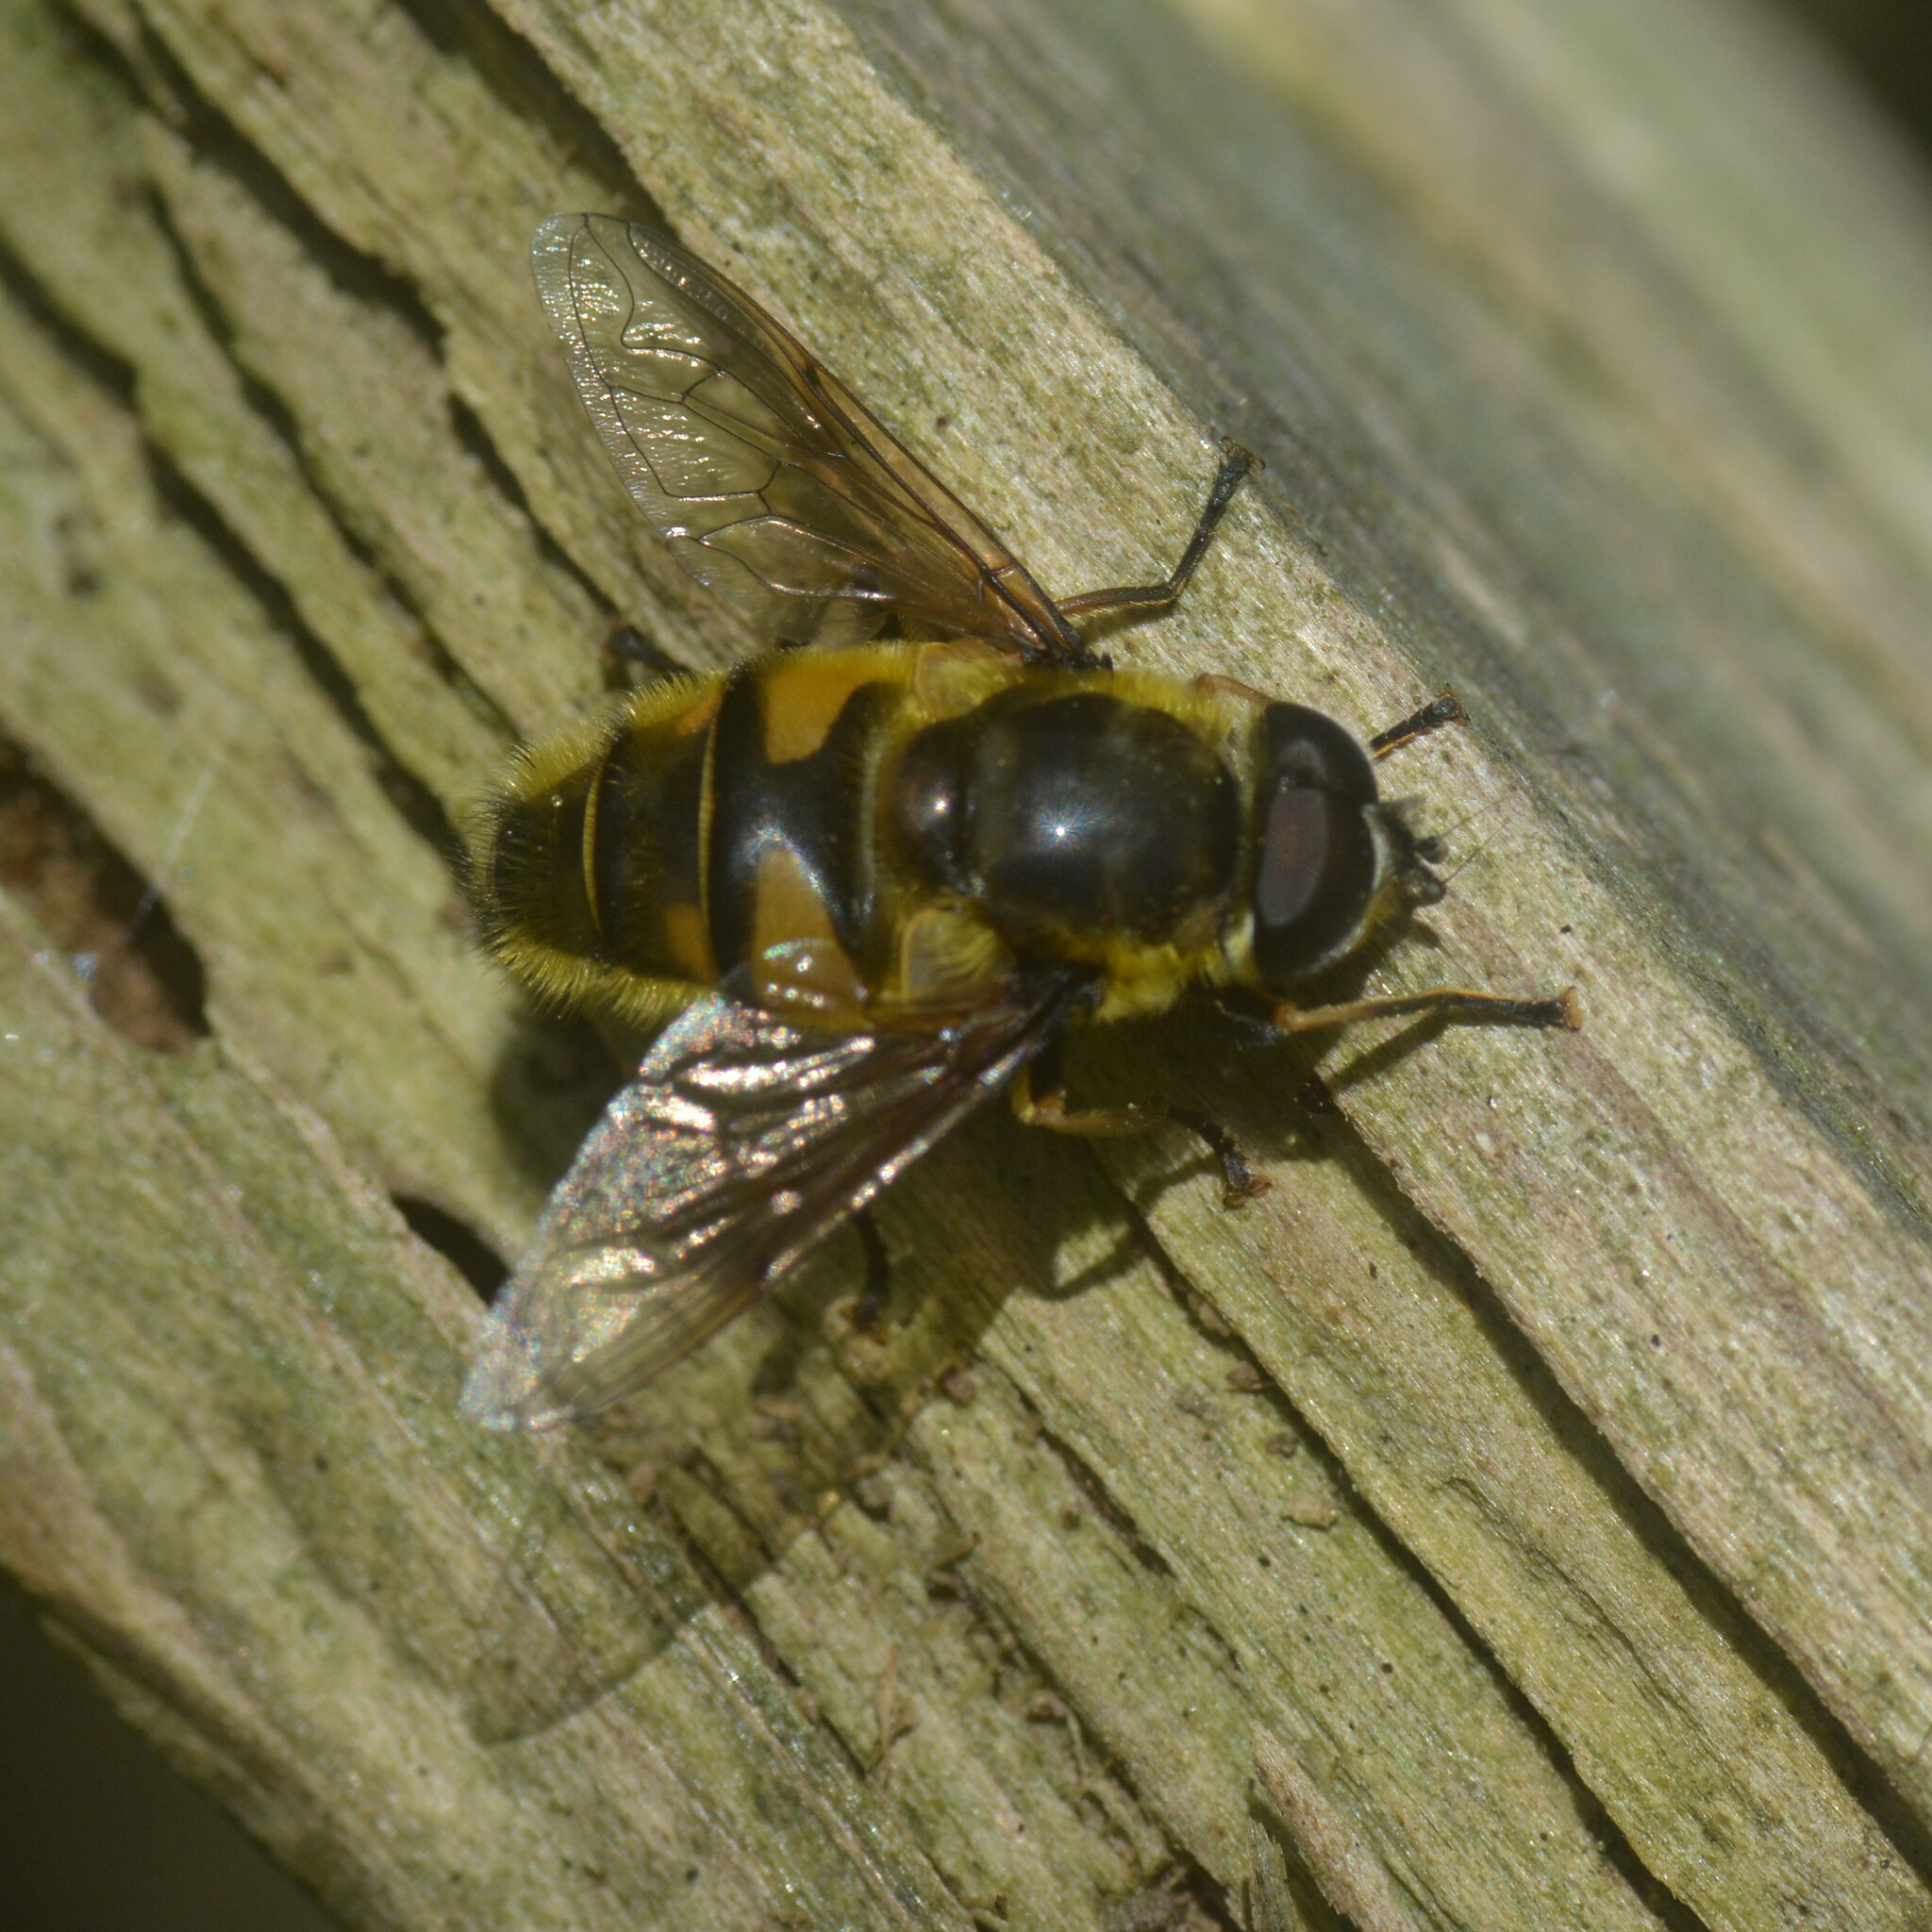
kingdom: Animalia
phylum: Arthropoda
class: Insecta
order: Diptera
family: Syrphidae
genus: Myathropa
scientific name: Myathropa florea
